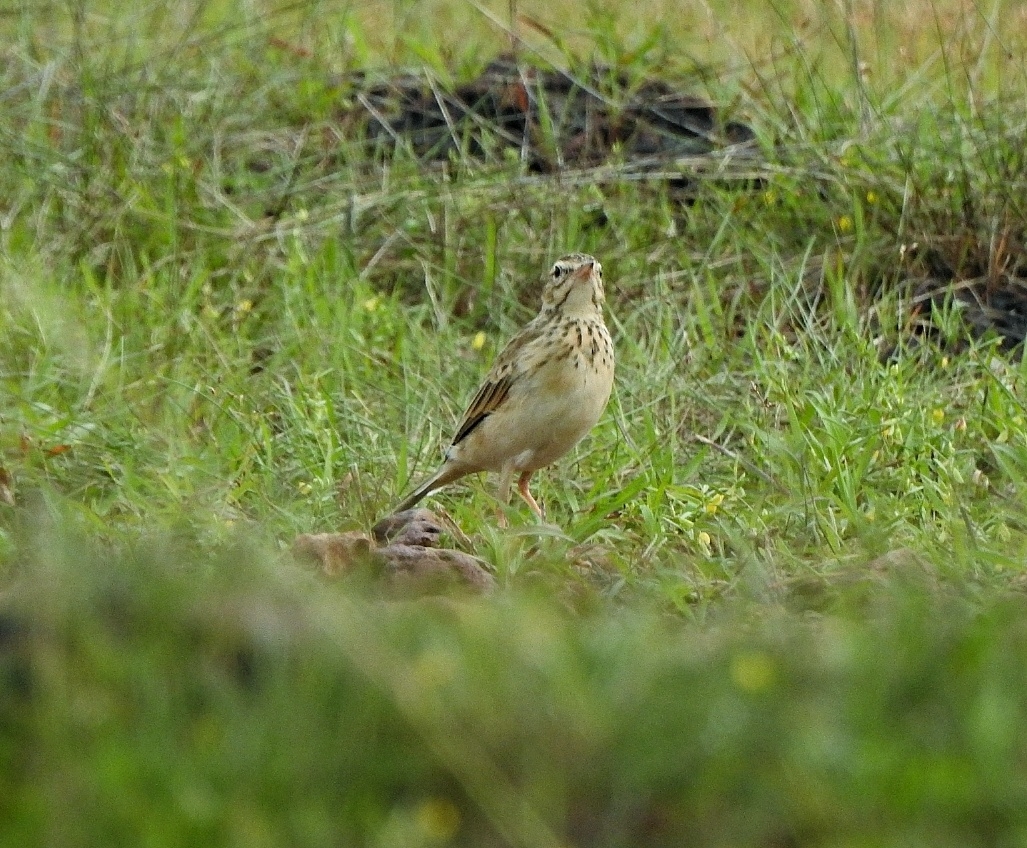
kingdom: Animalia
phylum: Chordata
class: Aves
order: Passeriformes
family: Motacillidae
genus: Anthus
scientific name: Anthus rufulus
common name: Paddyfield pipit
